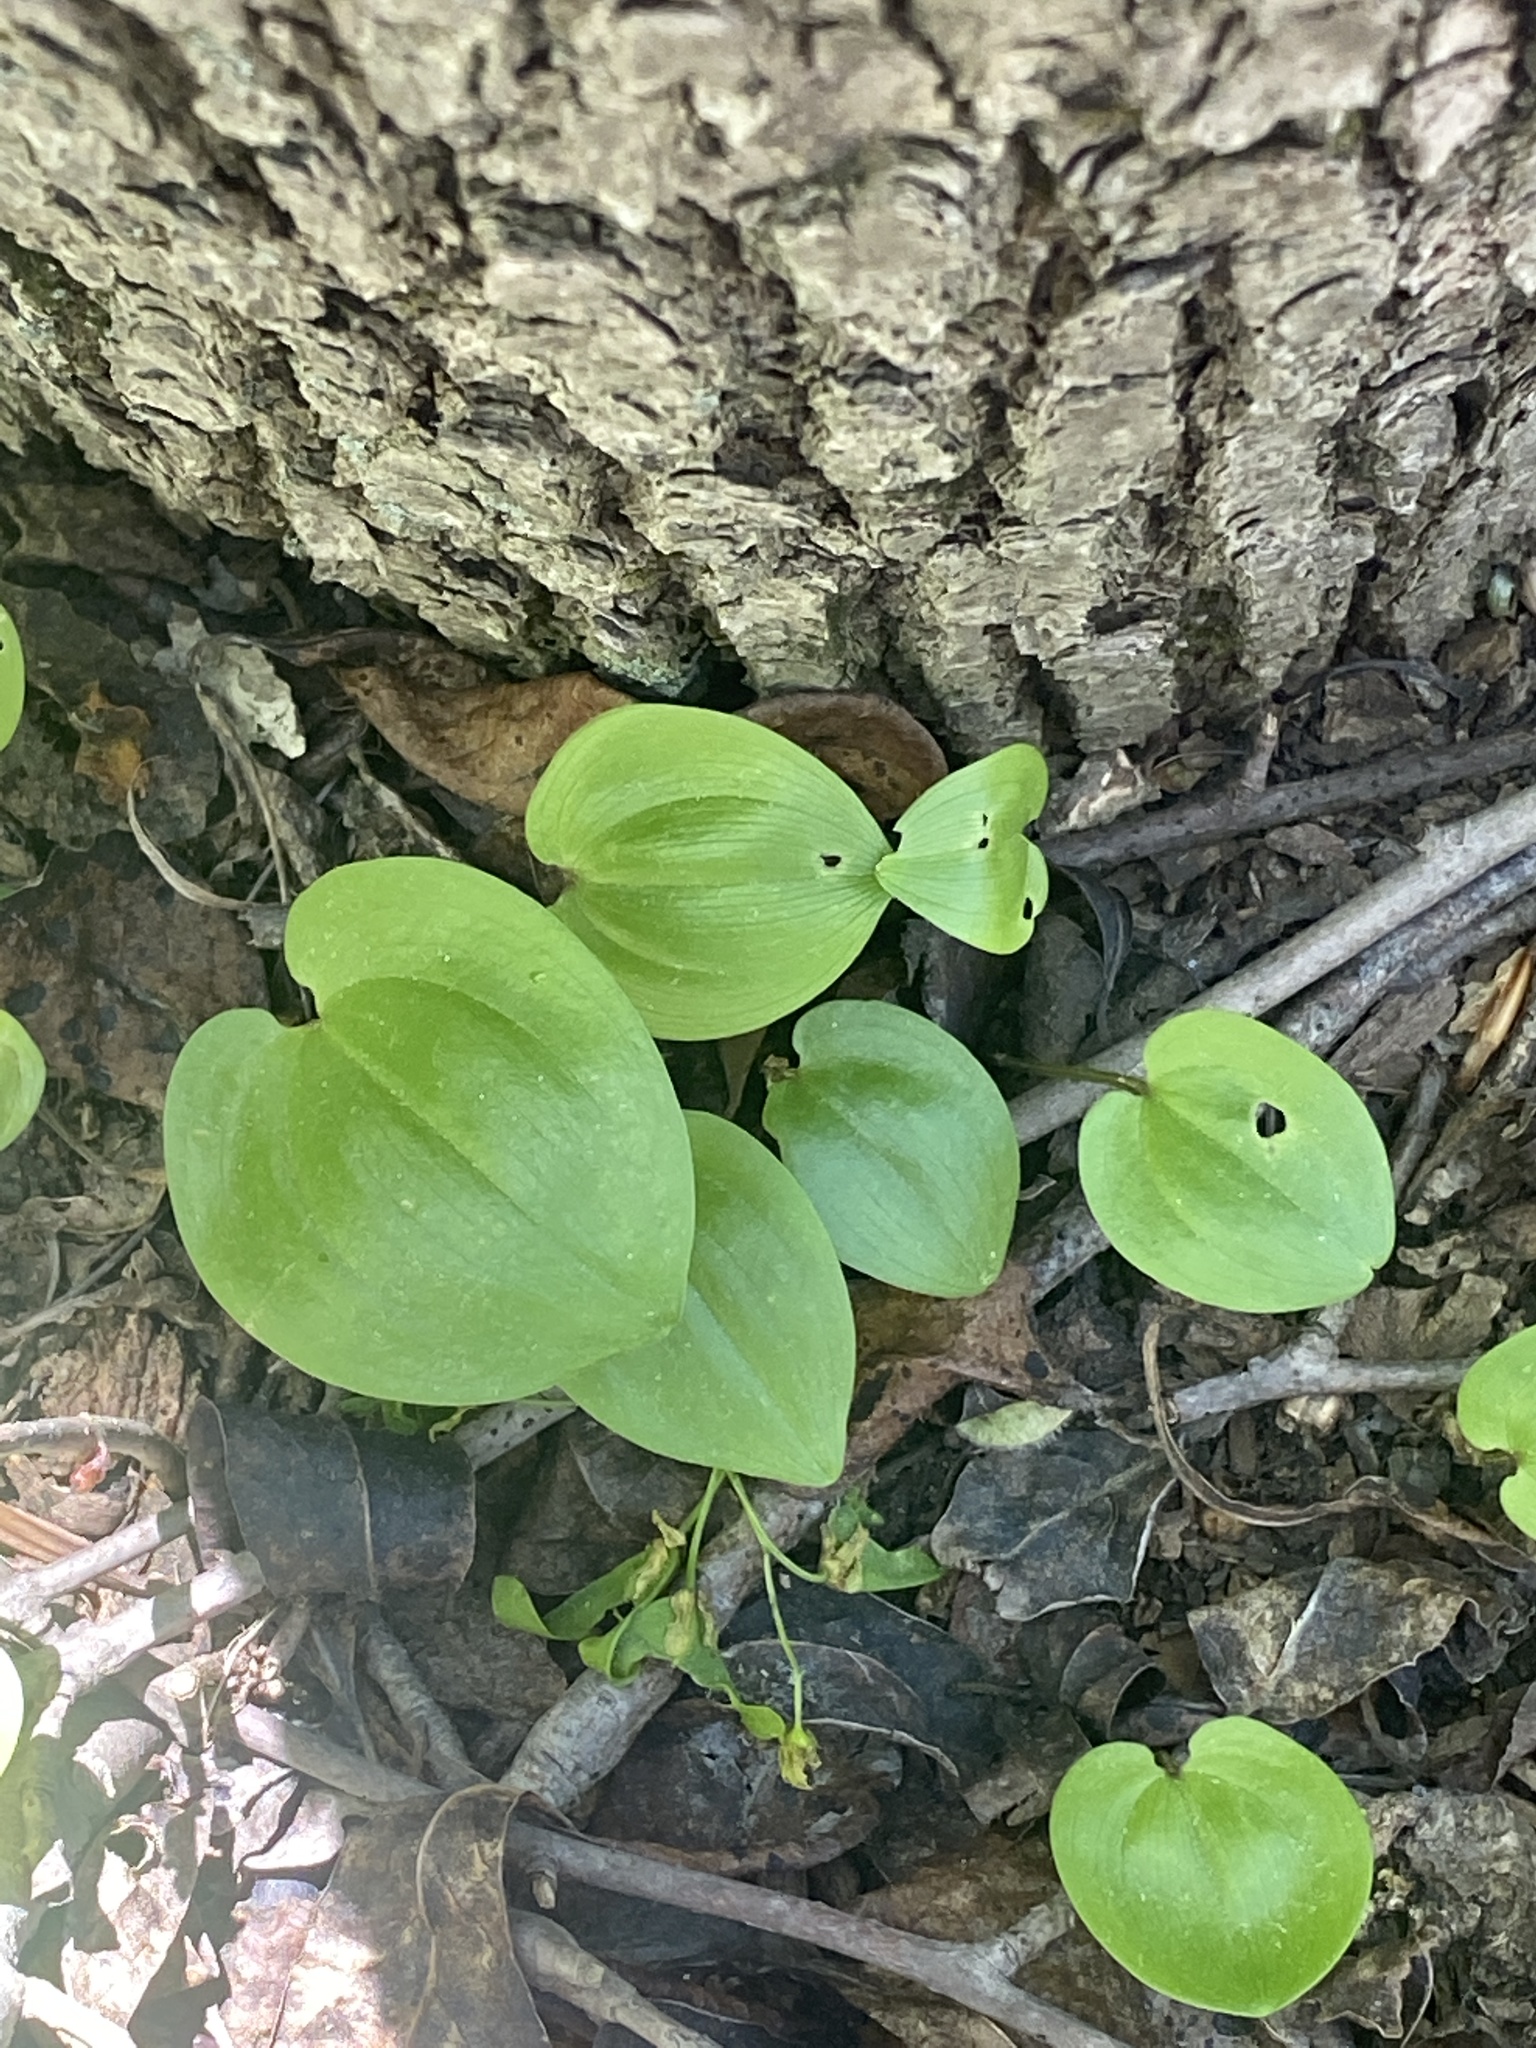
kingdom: Plantae
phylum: Tracheophyta
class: Liliopsida
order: Asparagales
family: Asparagaceae
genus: Maianthemum
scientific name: Maianthemum canadense
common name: False lily-of-the-valley
